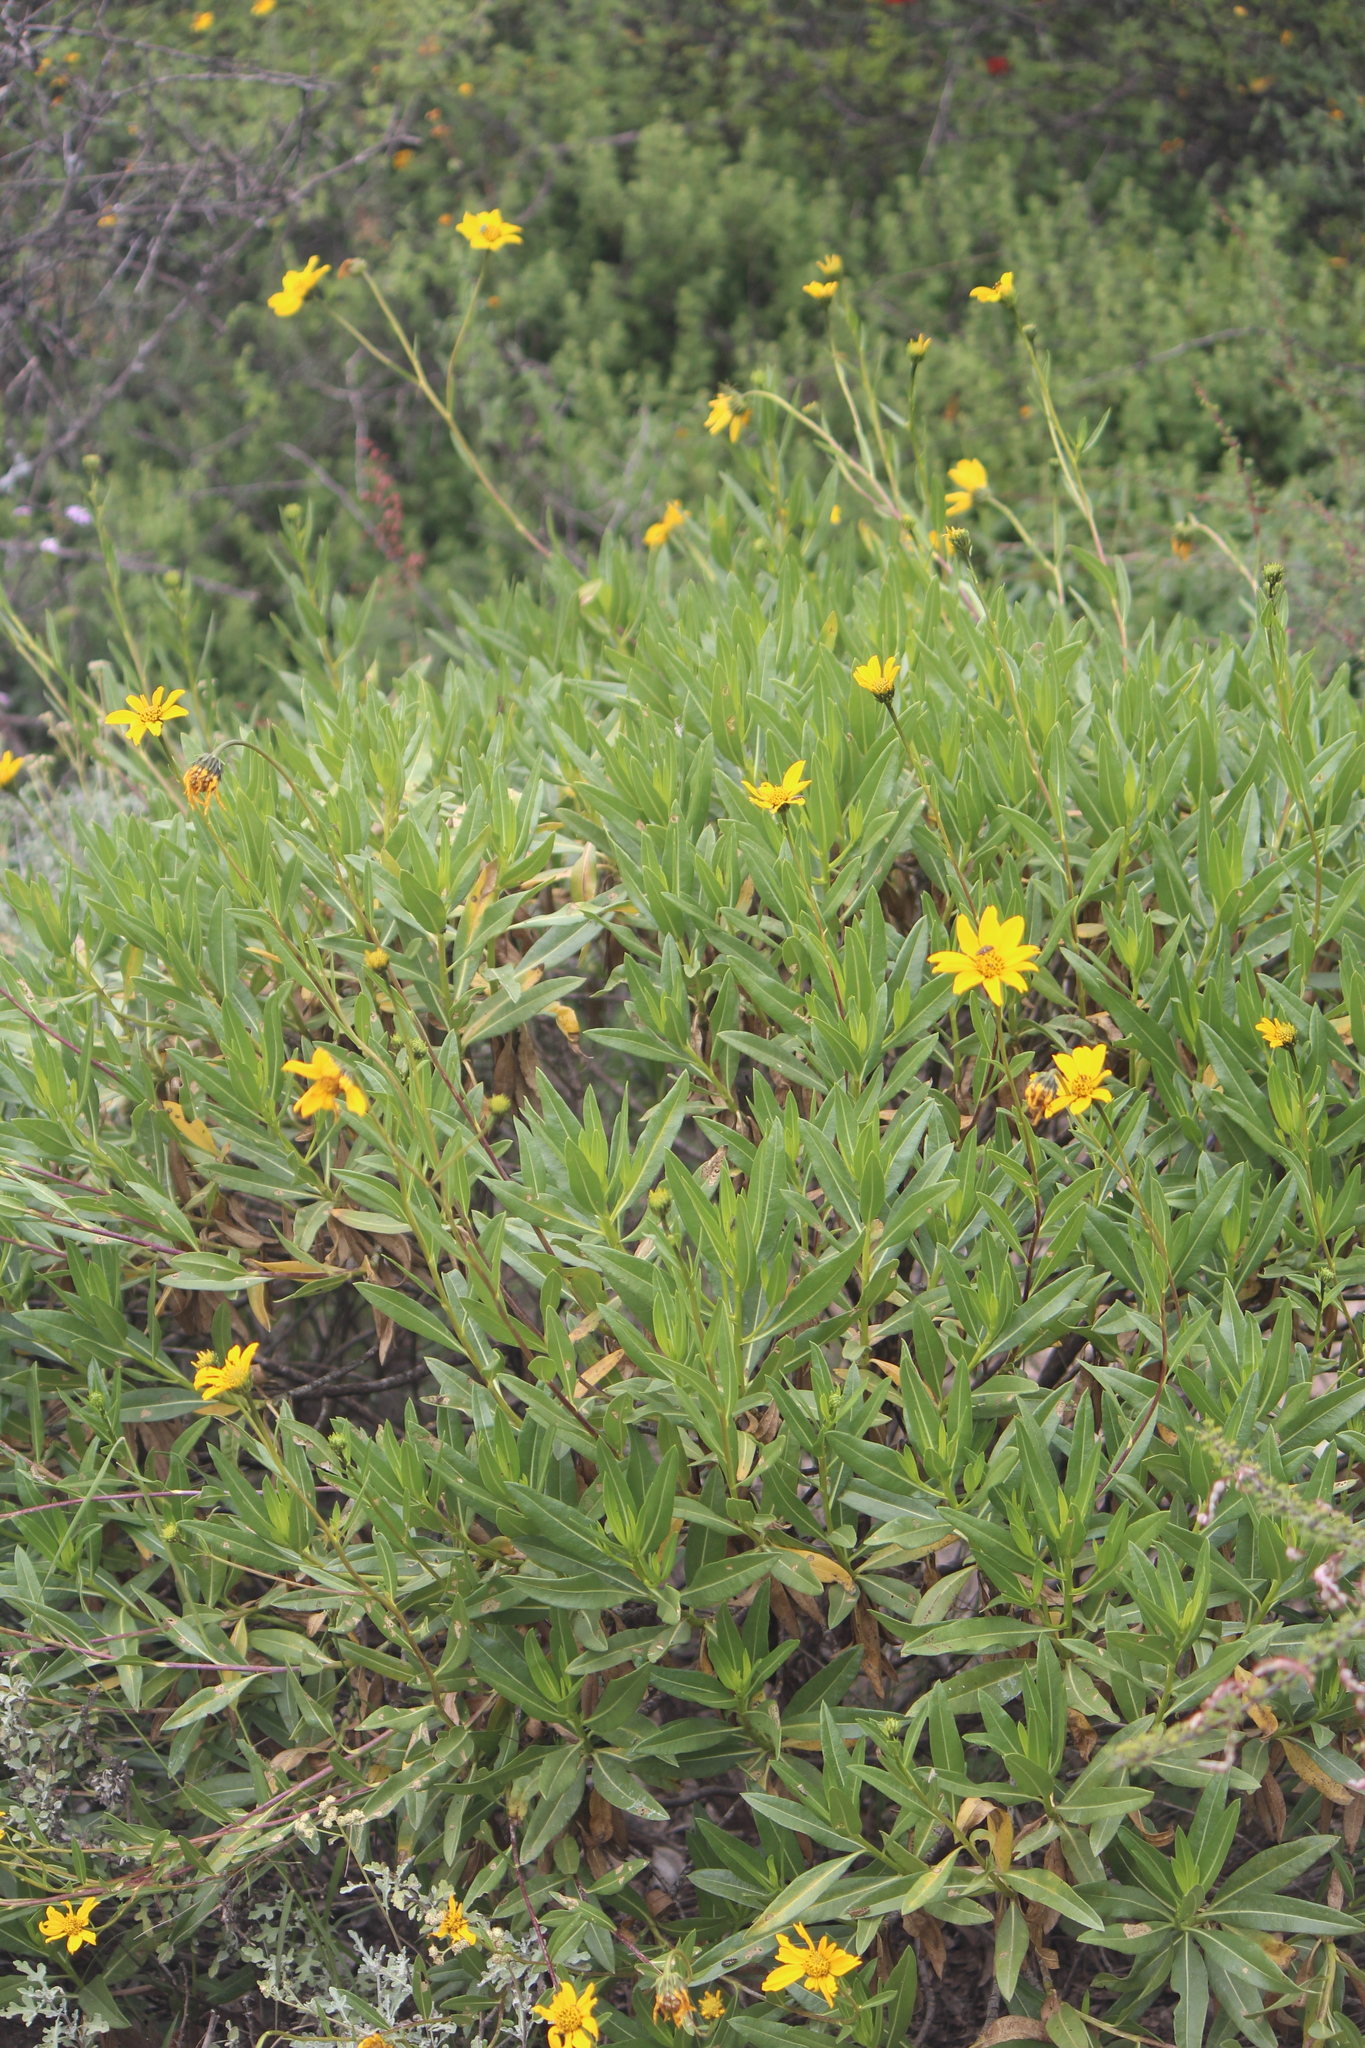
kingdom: Plantae
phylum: Tracheophyta
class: Magnoliopsida
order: Asterales
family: Asteraceae
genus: Flourensia
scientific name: Flourensia resinosa
